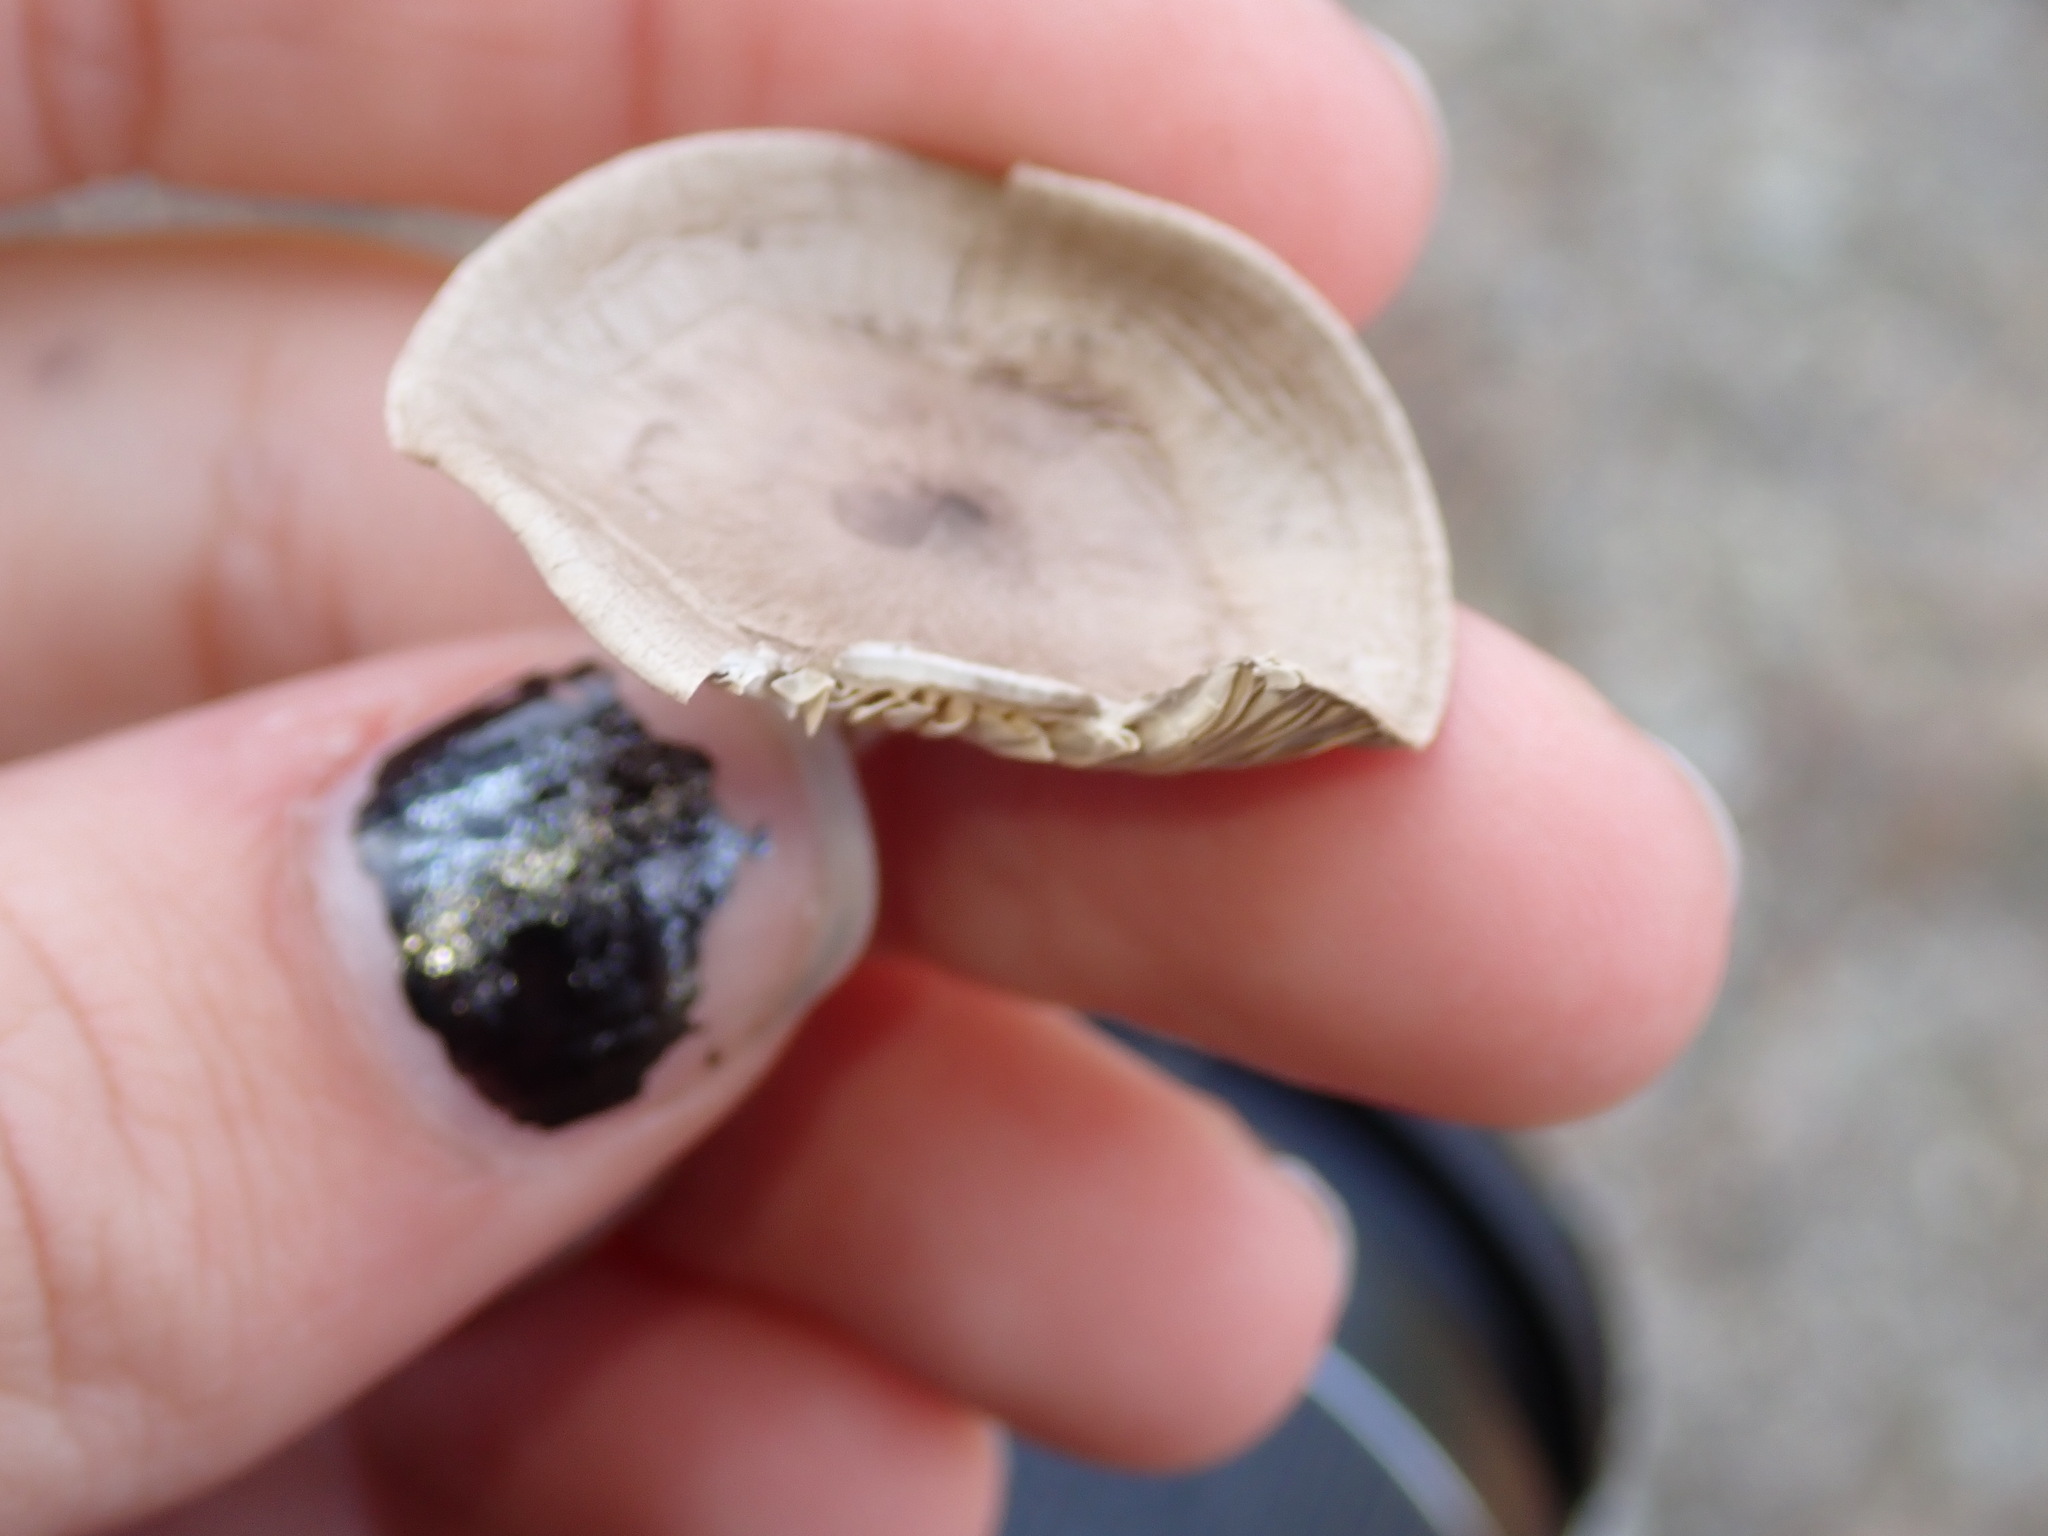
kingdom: Fungi
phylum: Basidiomycota
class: Agaricomycetes
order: Agaricales
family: Hygrophoraceae
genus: Cantharellula
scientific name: Cantharellula umbonata
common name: The humpback
